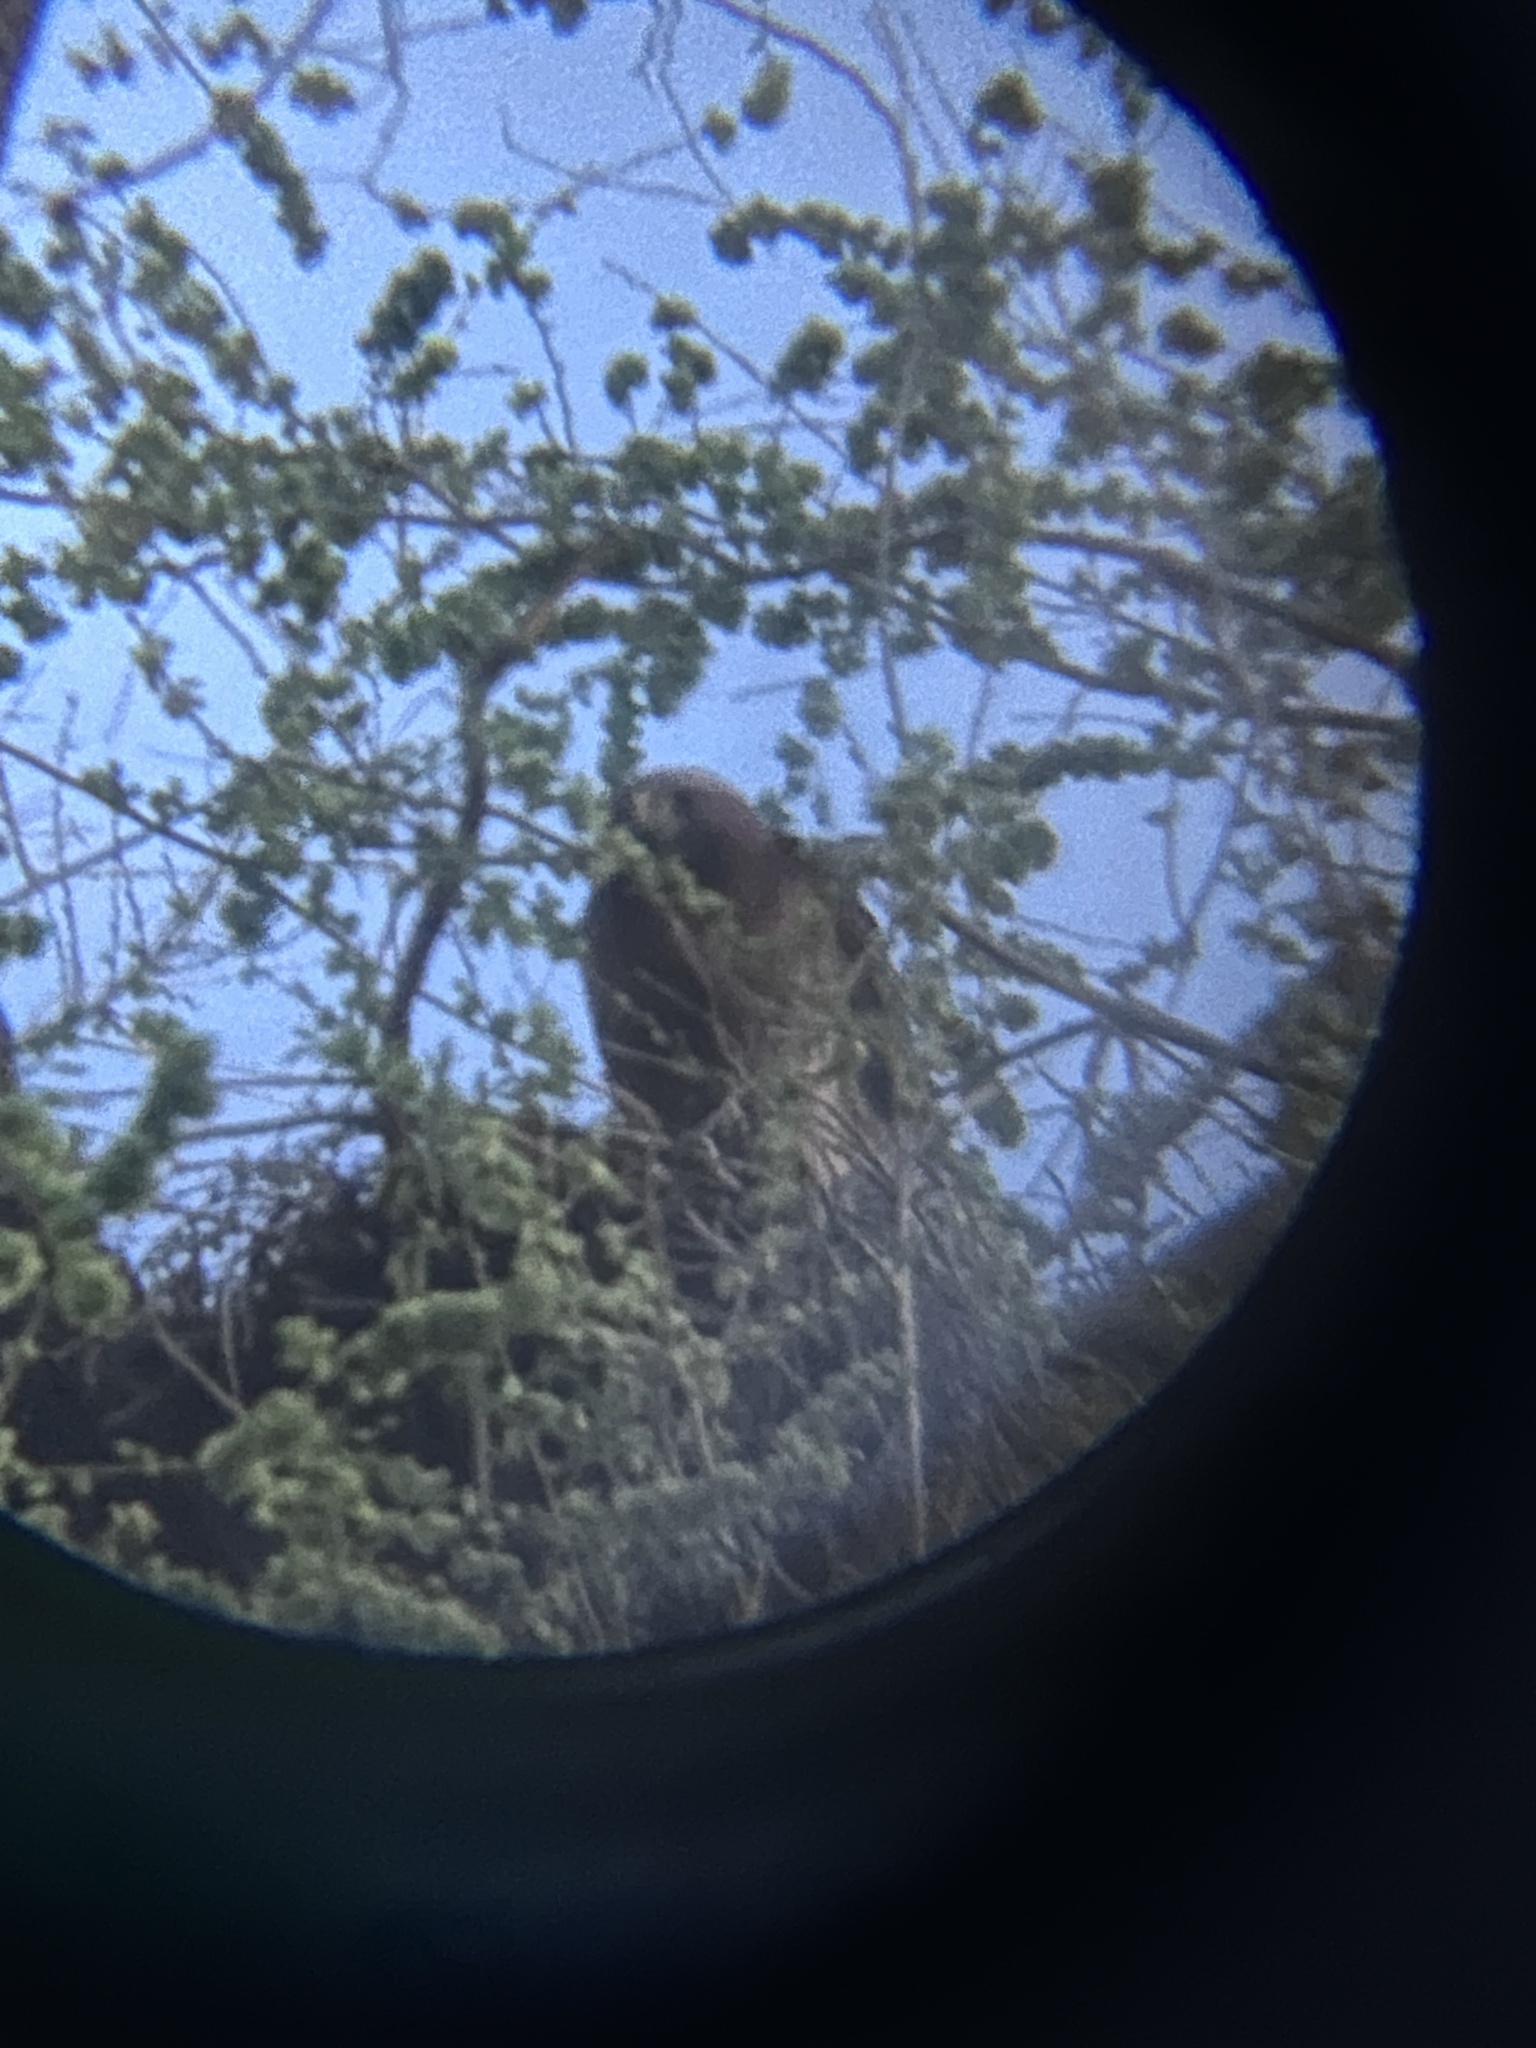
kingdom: Animalia
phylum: Chordata
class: Aves
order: Accipitriformes
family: Accipitridae
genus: Buteo
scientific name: Buteo jamaicensis
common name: Red-tailed hawk
